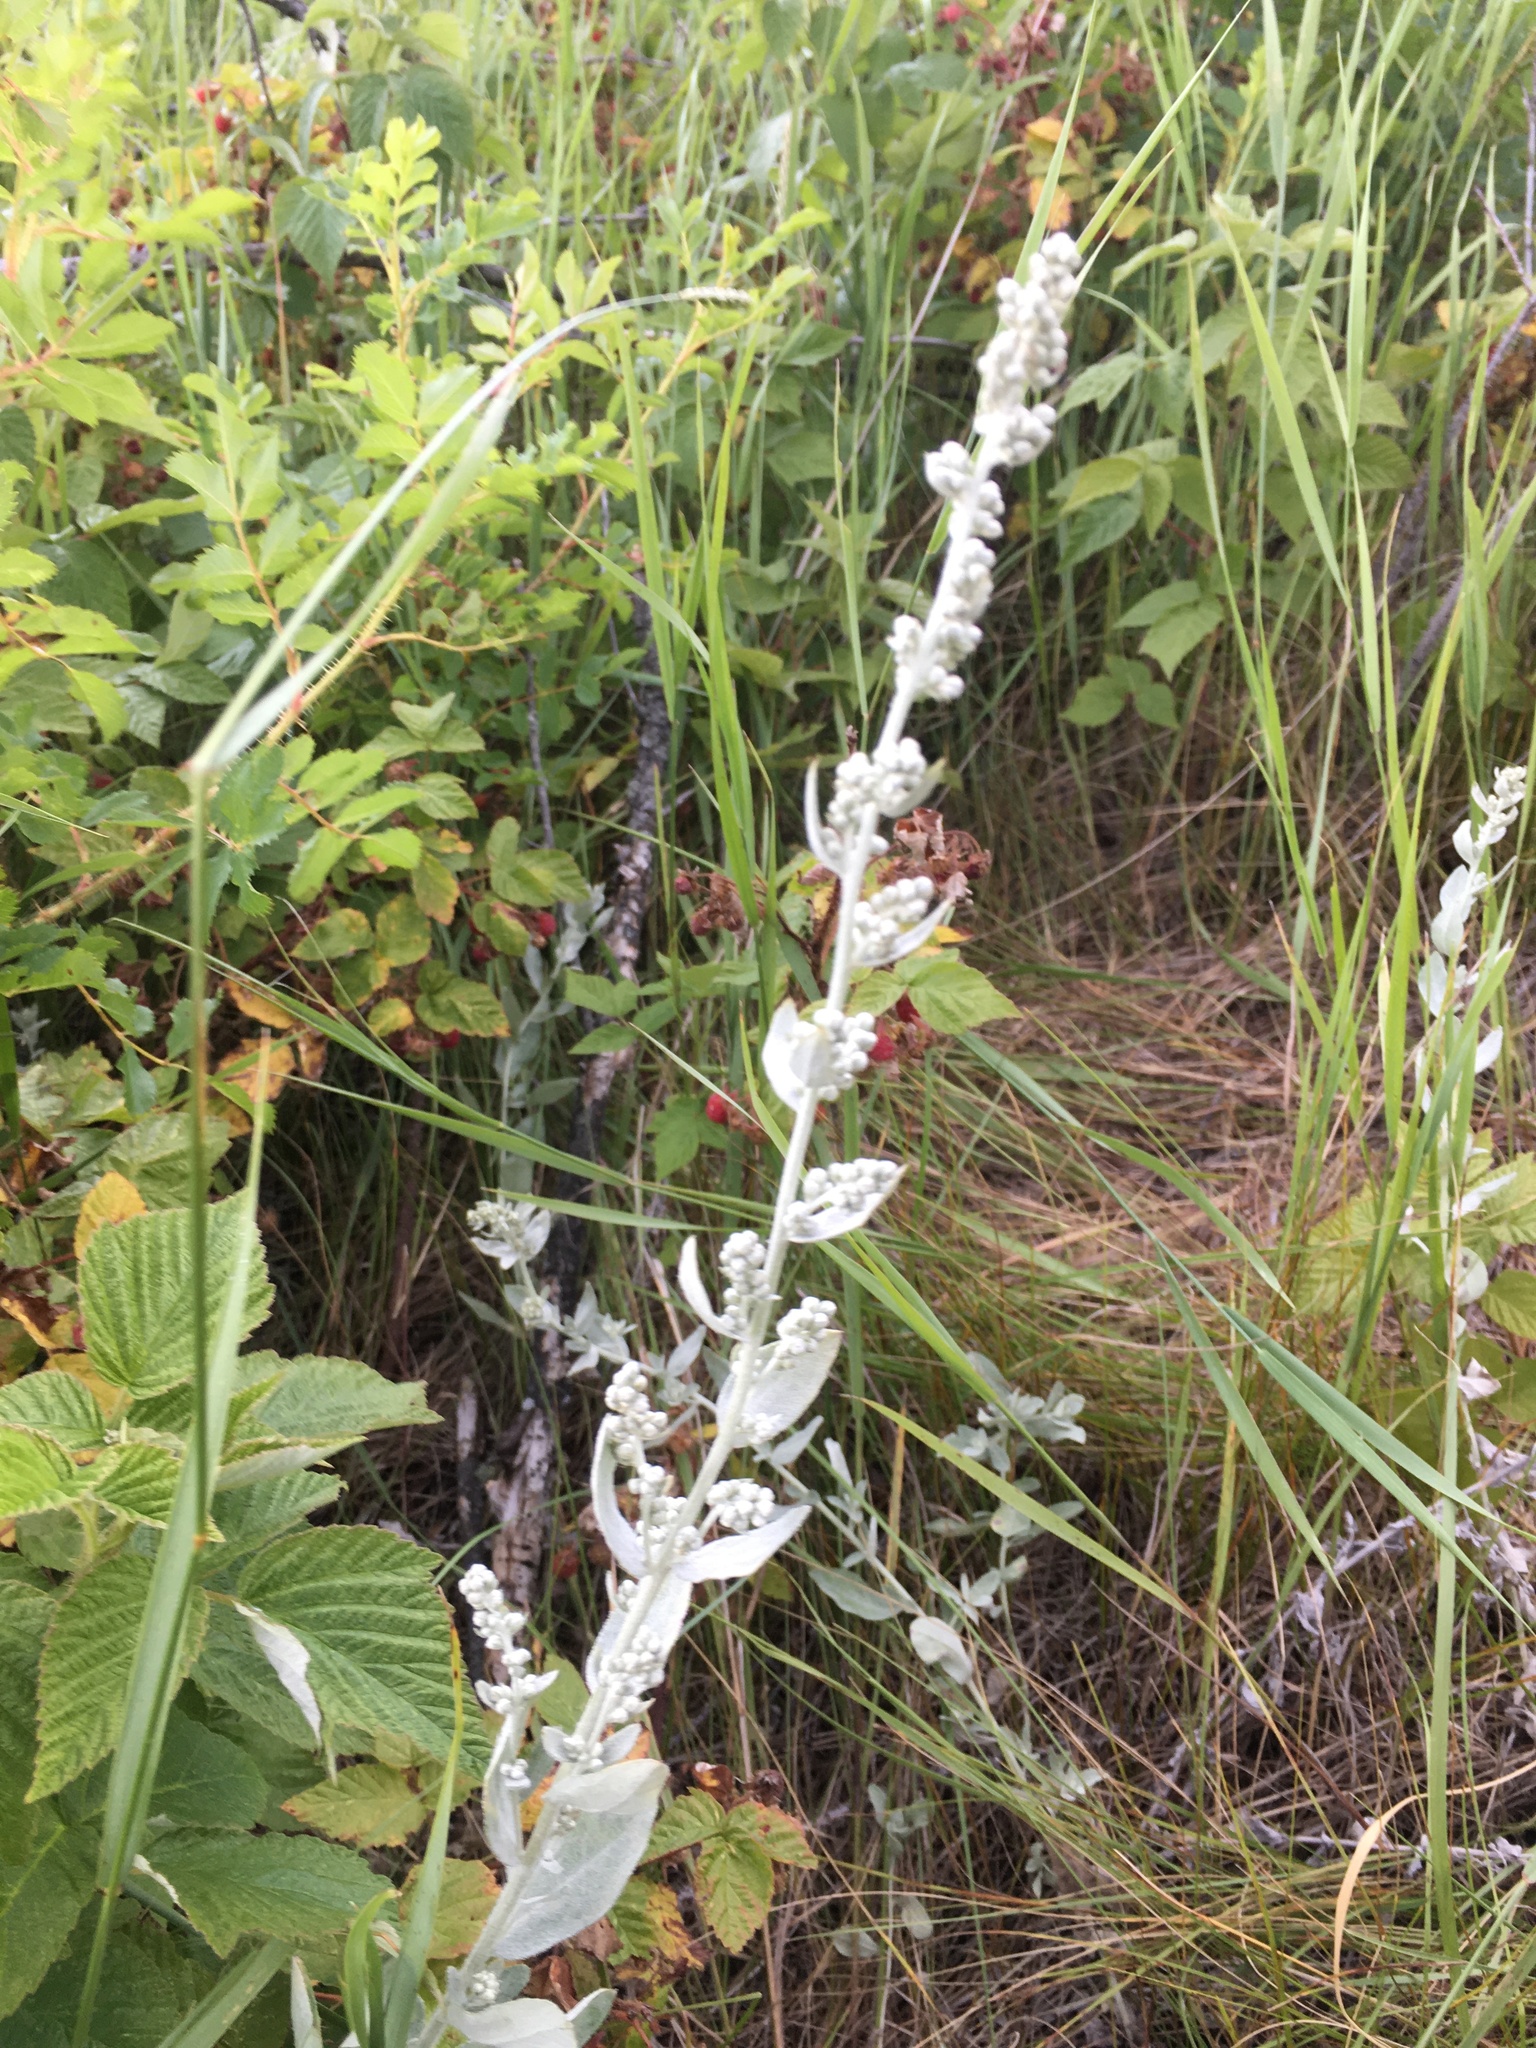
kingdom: Plantae
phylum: Tracheophyta
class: Magnoliopsida
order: Asterales
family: Asteraceae
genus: Artemisia
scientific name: Artemisia ludoviciana
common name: Western mugwort
